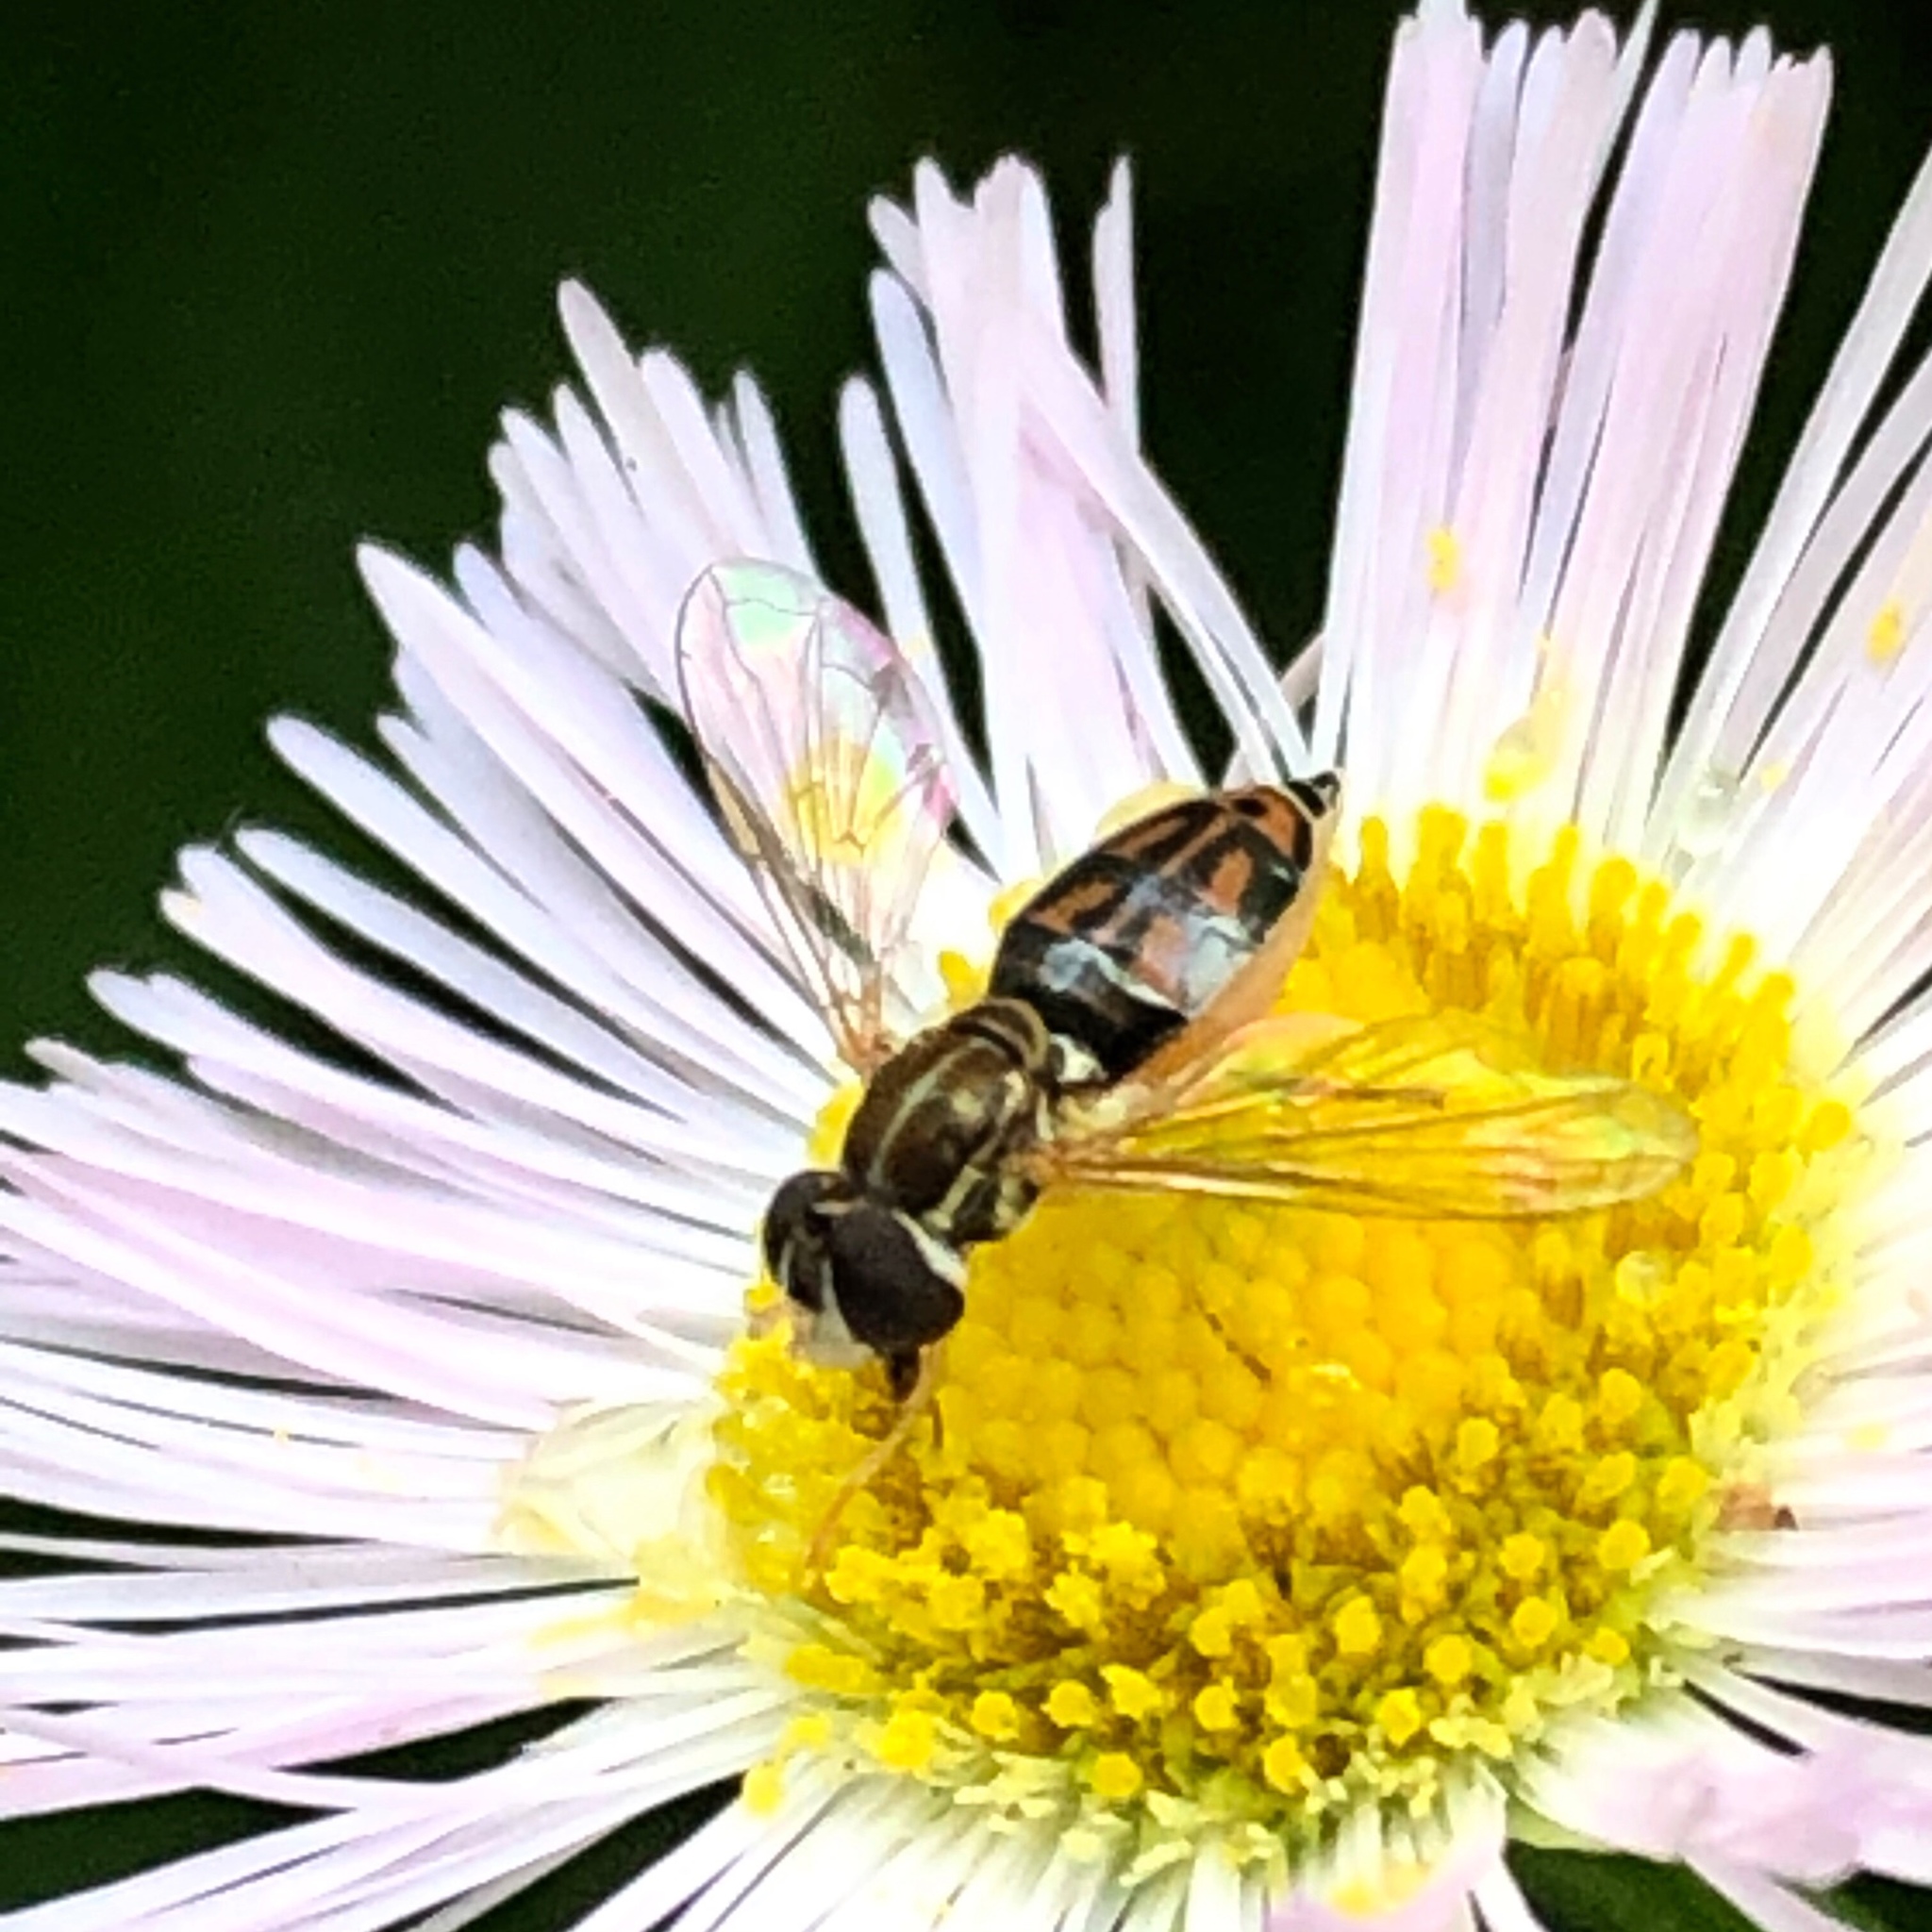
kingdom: Animalia
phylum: Arthropoda
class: Insecta
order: Diptera
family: Syrphidae
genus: Toxomerus
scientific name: Toxomerus geminatus
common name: Eastern calligrapher
